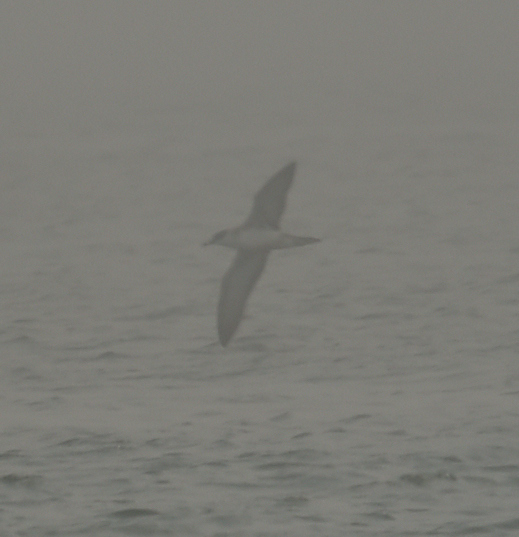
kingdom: Animalia
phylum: Chordata
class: Aves
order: Procellariiformes
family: Procellariidae
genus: Puffinus
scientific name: Puffinus gravis
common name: Great shearwater
